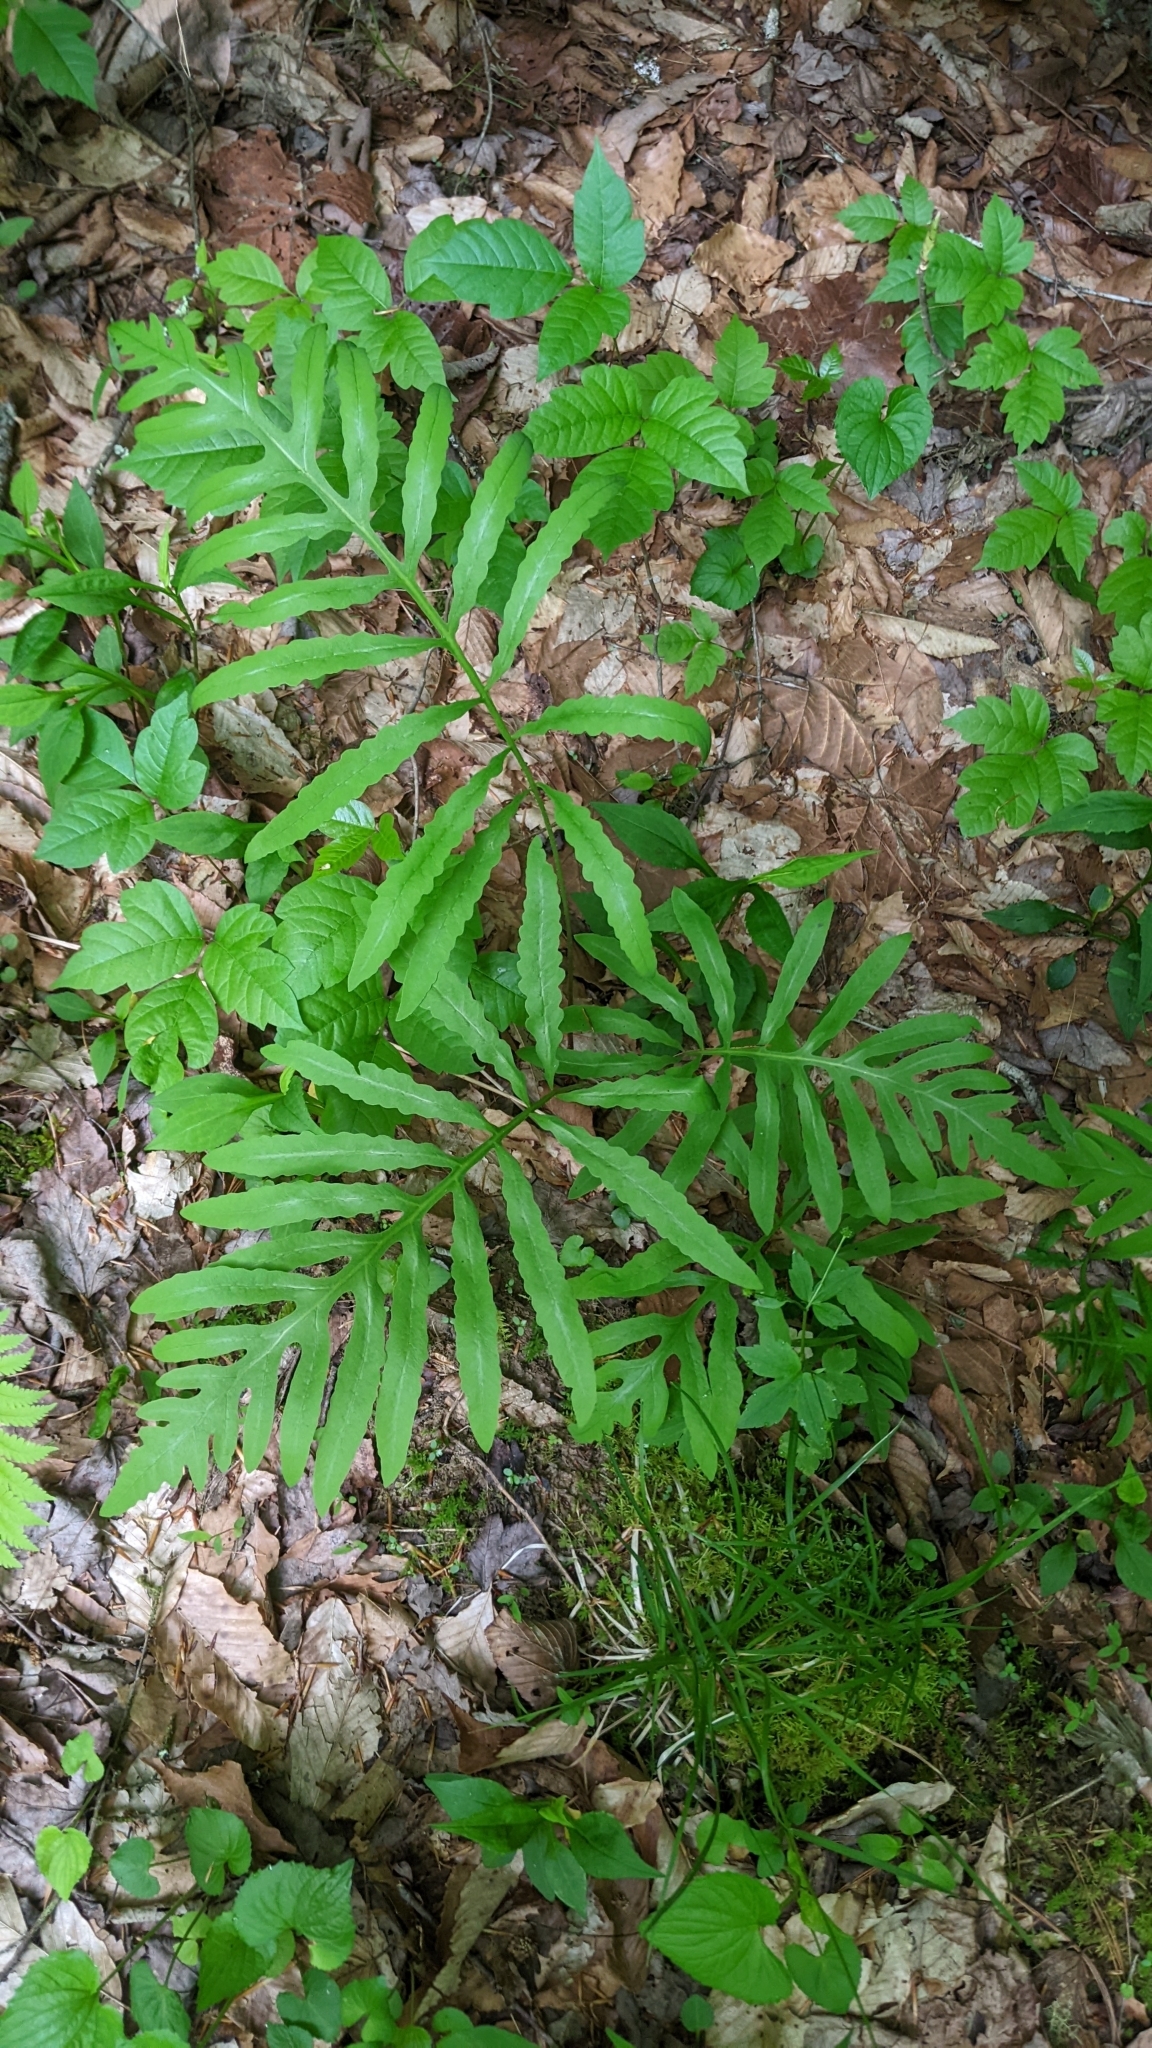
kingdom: Plantae
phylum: Tracheophyta
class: Polypodiopsida
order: Polypodiales
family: Onocleaceae
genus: Onoclea
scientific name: Onoclea sensibilis
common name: Sensitive fern
